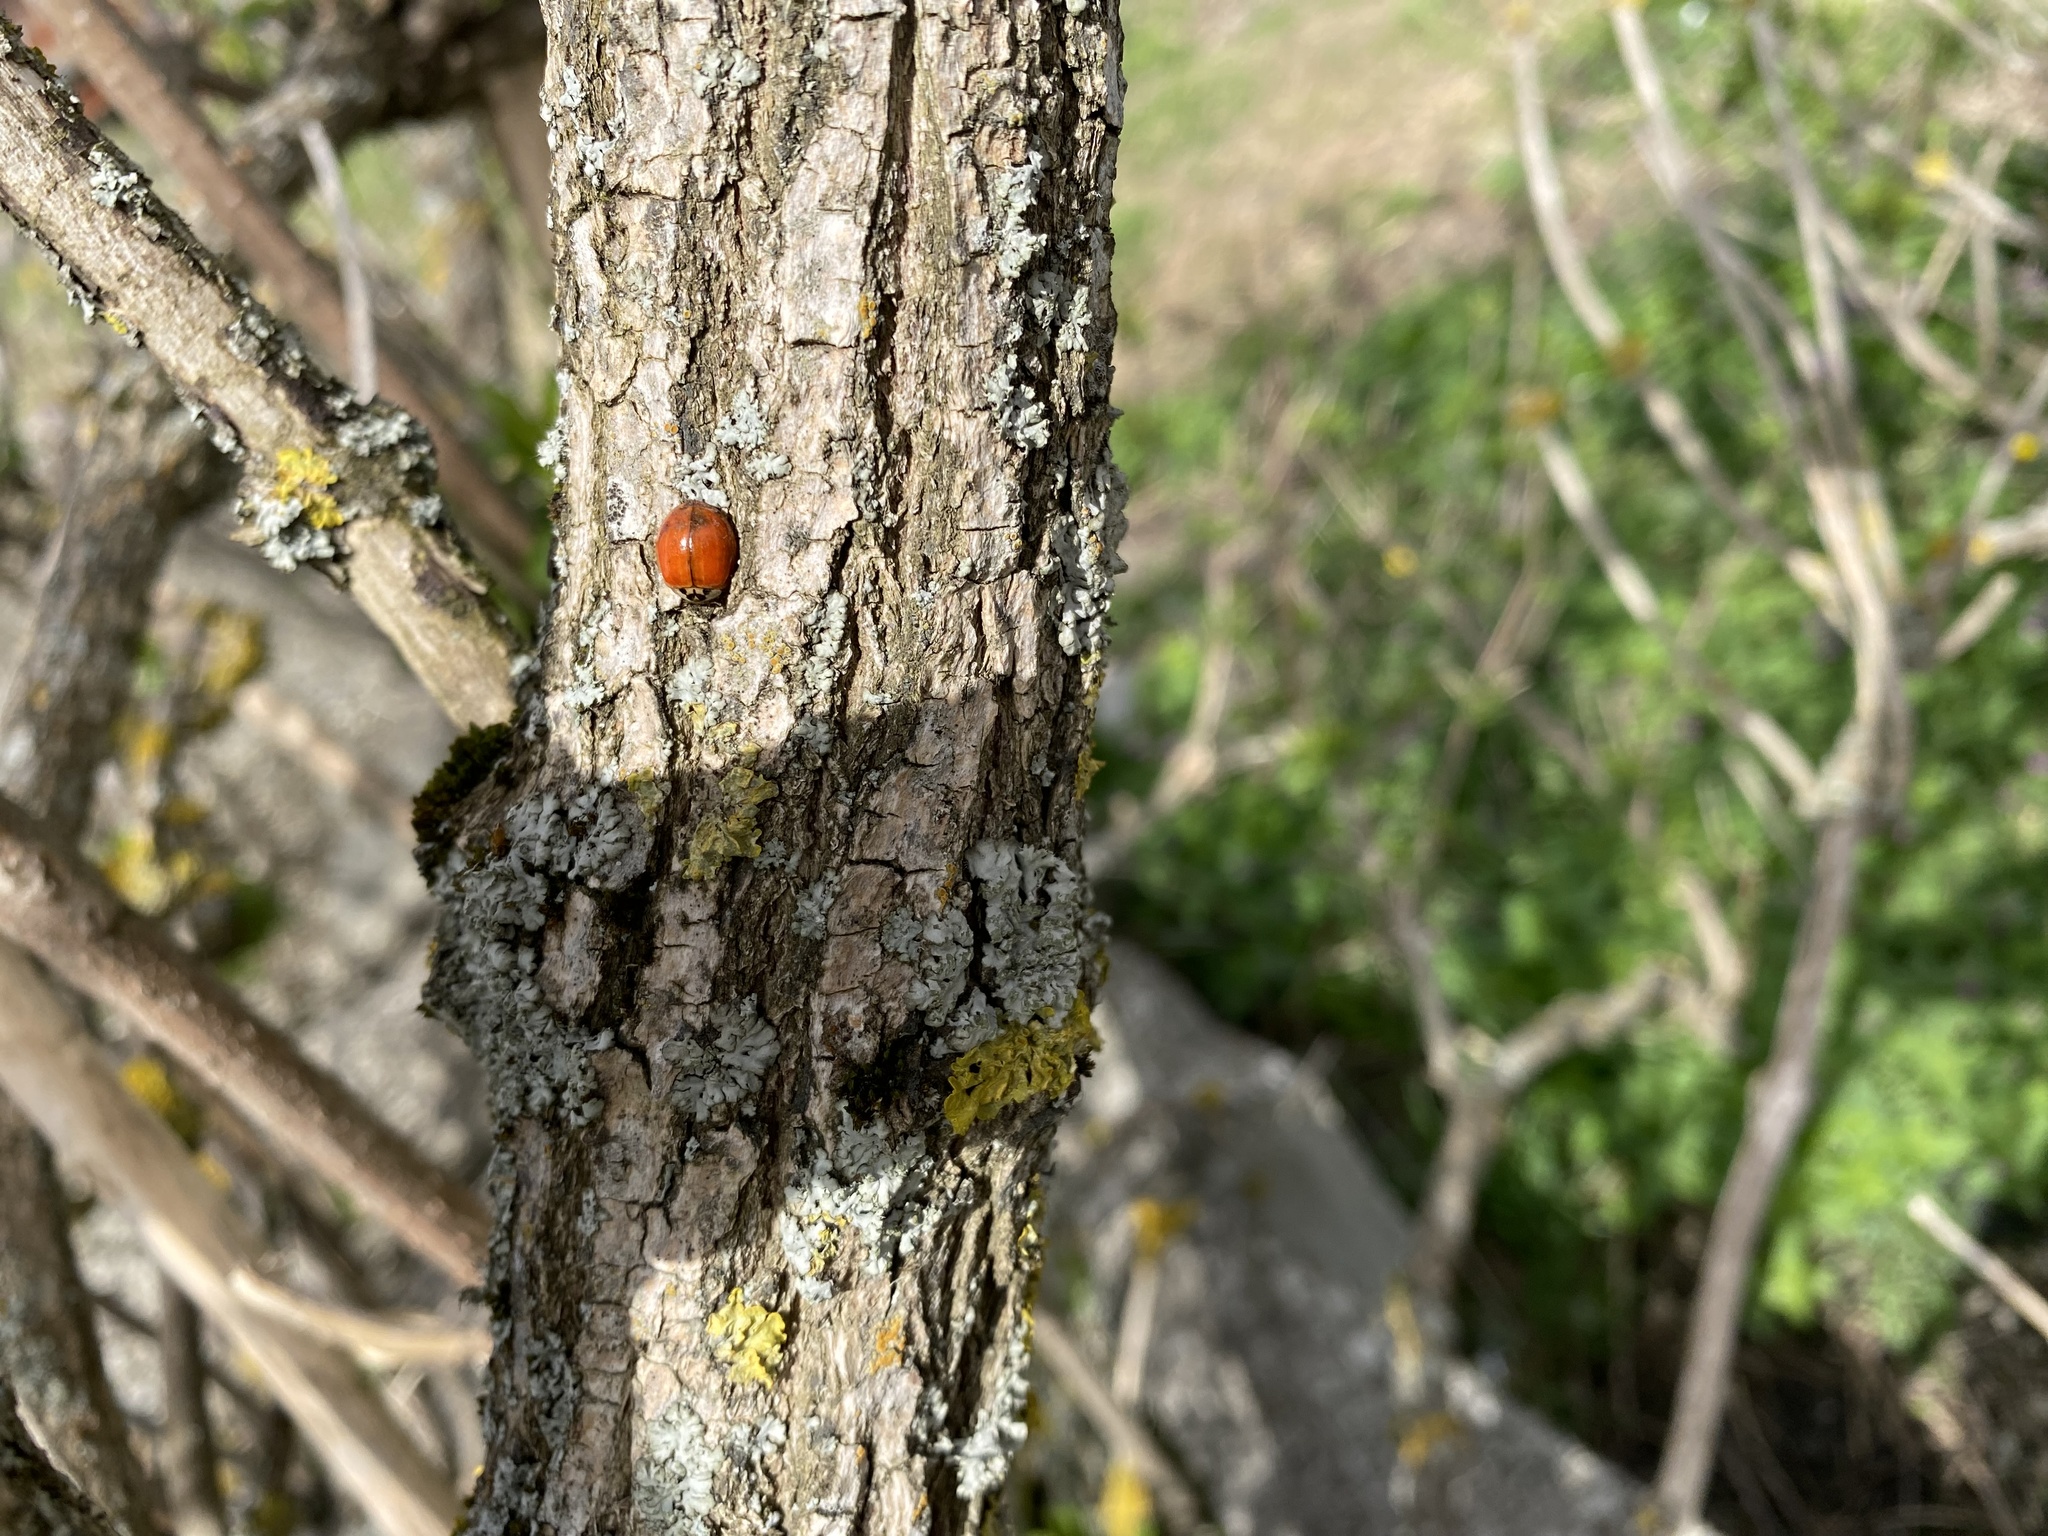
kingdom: Animalia
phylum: Arthropoda
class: Insecta
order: Coleoptera
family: Coccinellidae
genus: Harmonia
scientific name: Harmonia axyridis
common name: Harlequin ladybird
